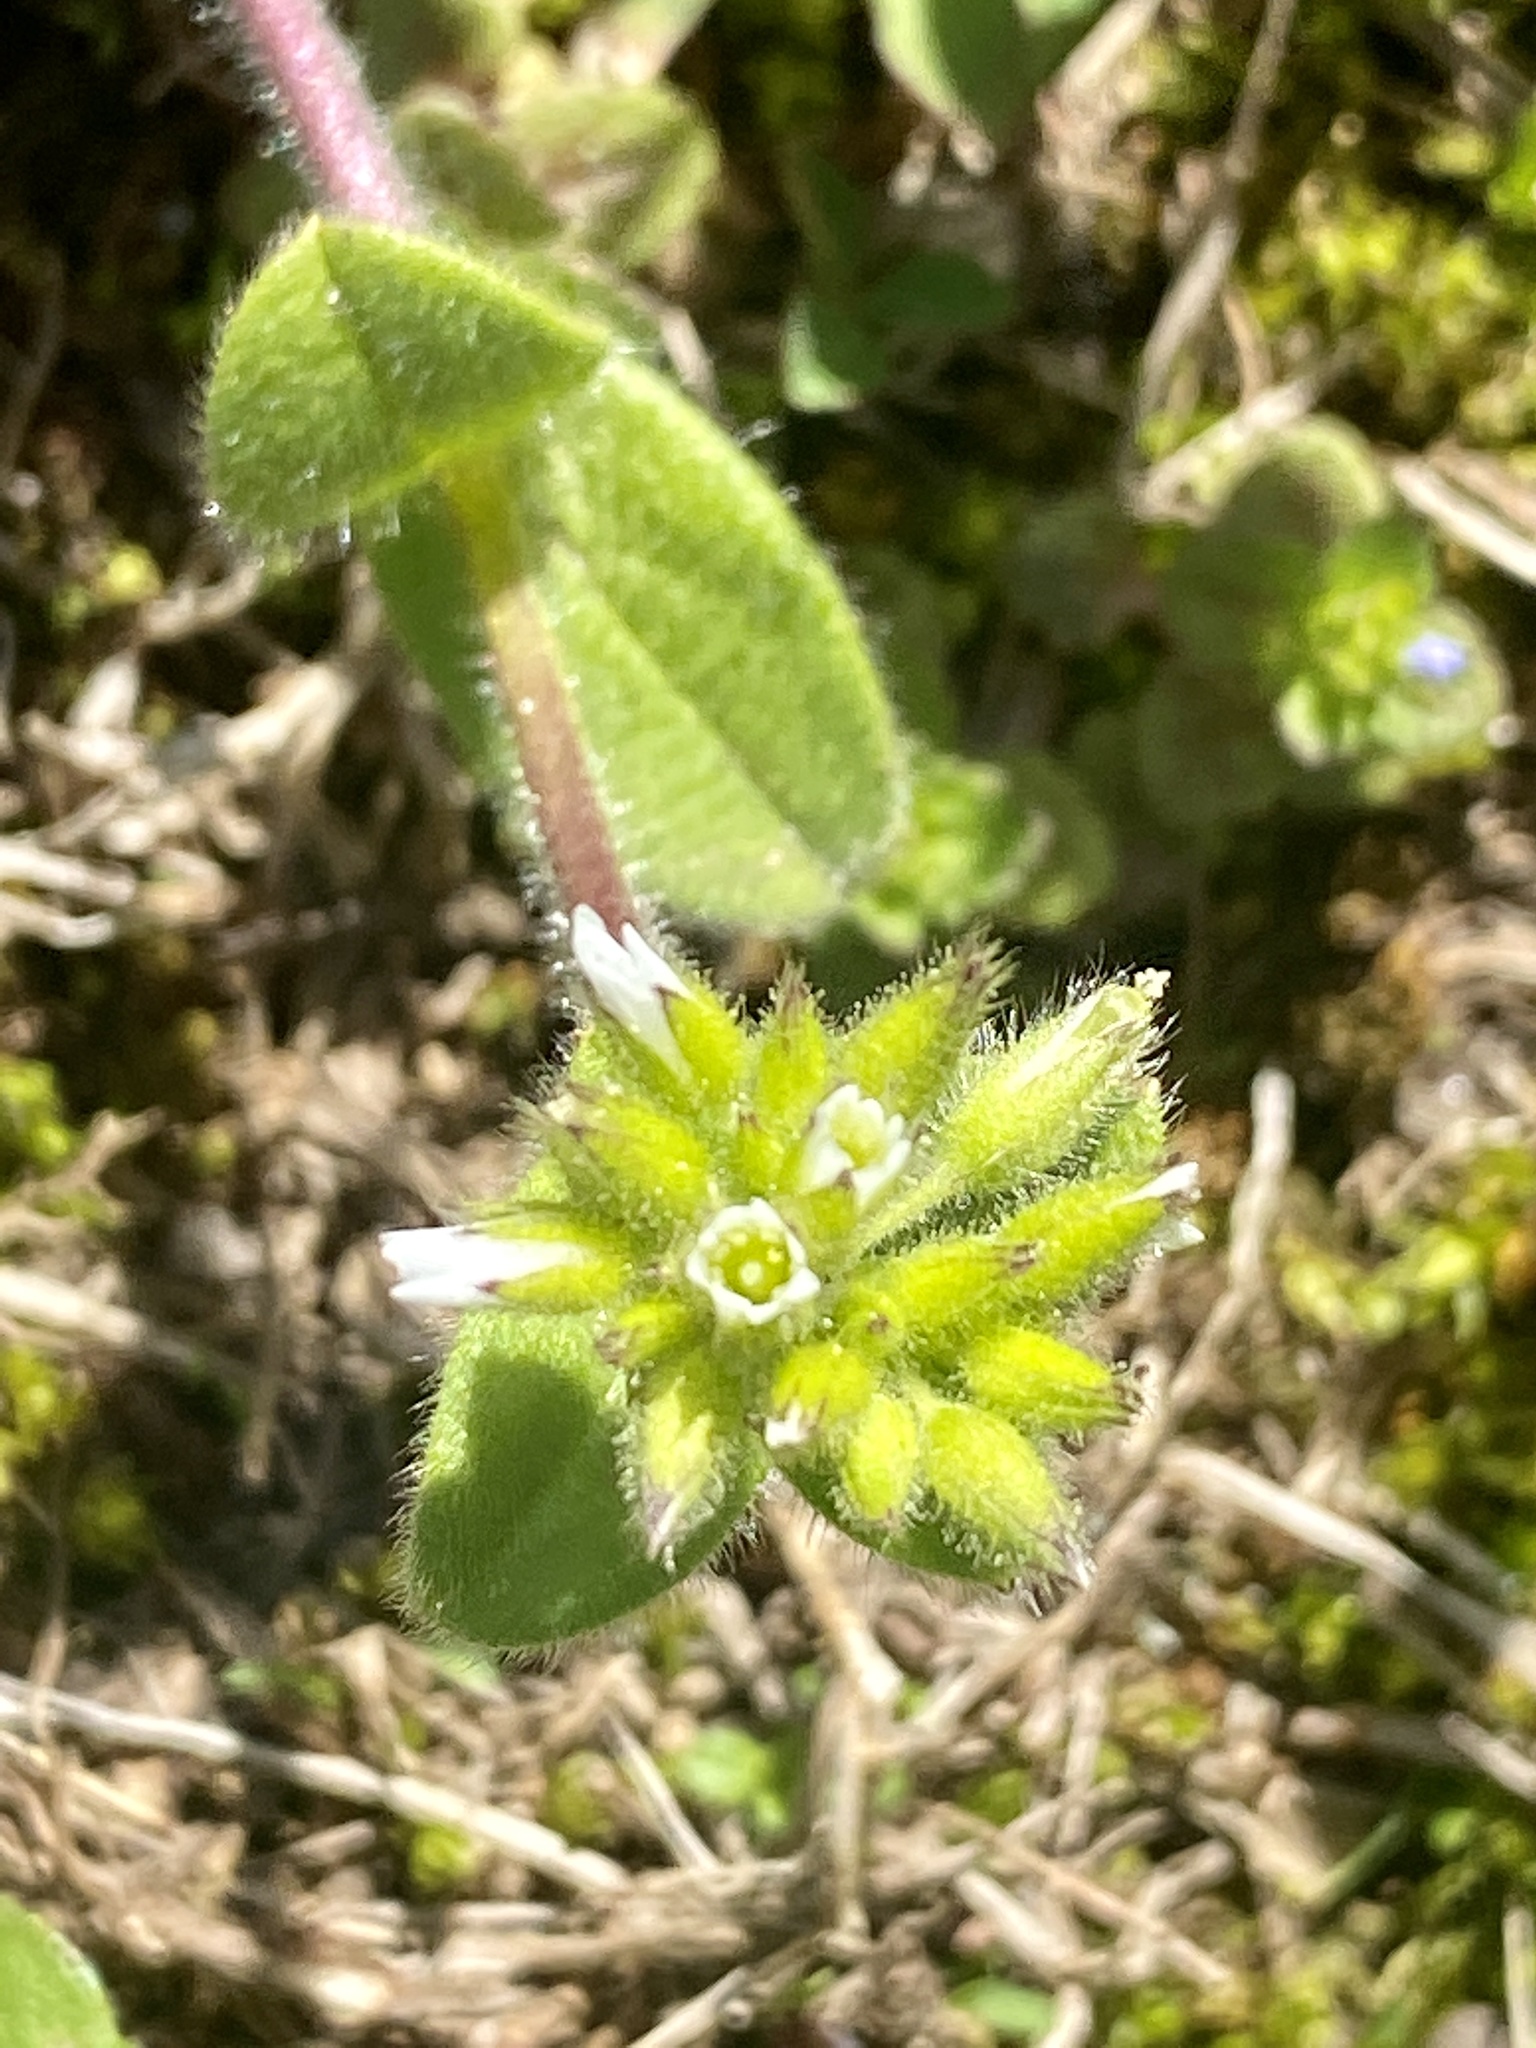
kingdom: Plantae
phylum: Tracheophyta
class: Magnoliopsida
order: Caryophyllales
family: Caryophyllaceae
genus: Cerastium
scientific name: Cerastium glomeratum
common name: Sticky chickweed
